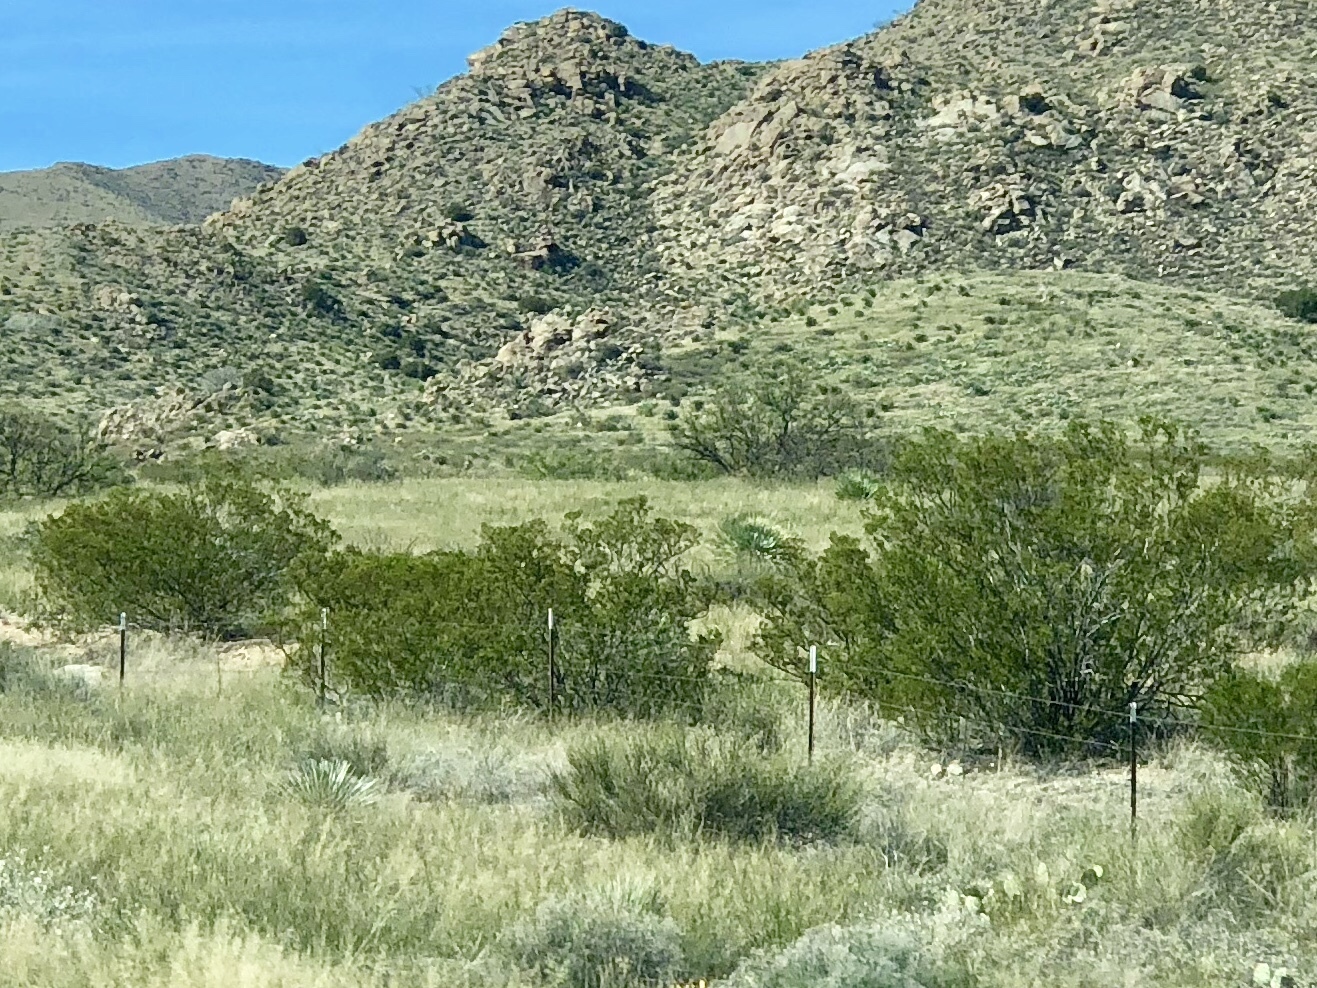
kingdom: Plantae
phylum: Tracheophyta
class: Magnoliopsida
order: Zygophyllales
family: Zygophyllaceae
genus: Larrea
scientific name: Larrea tridentata
